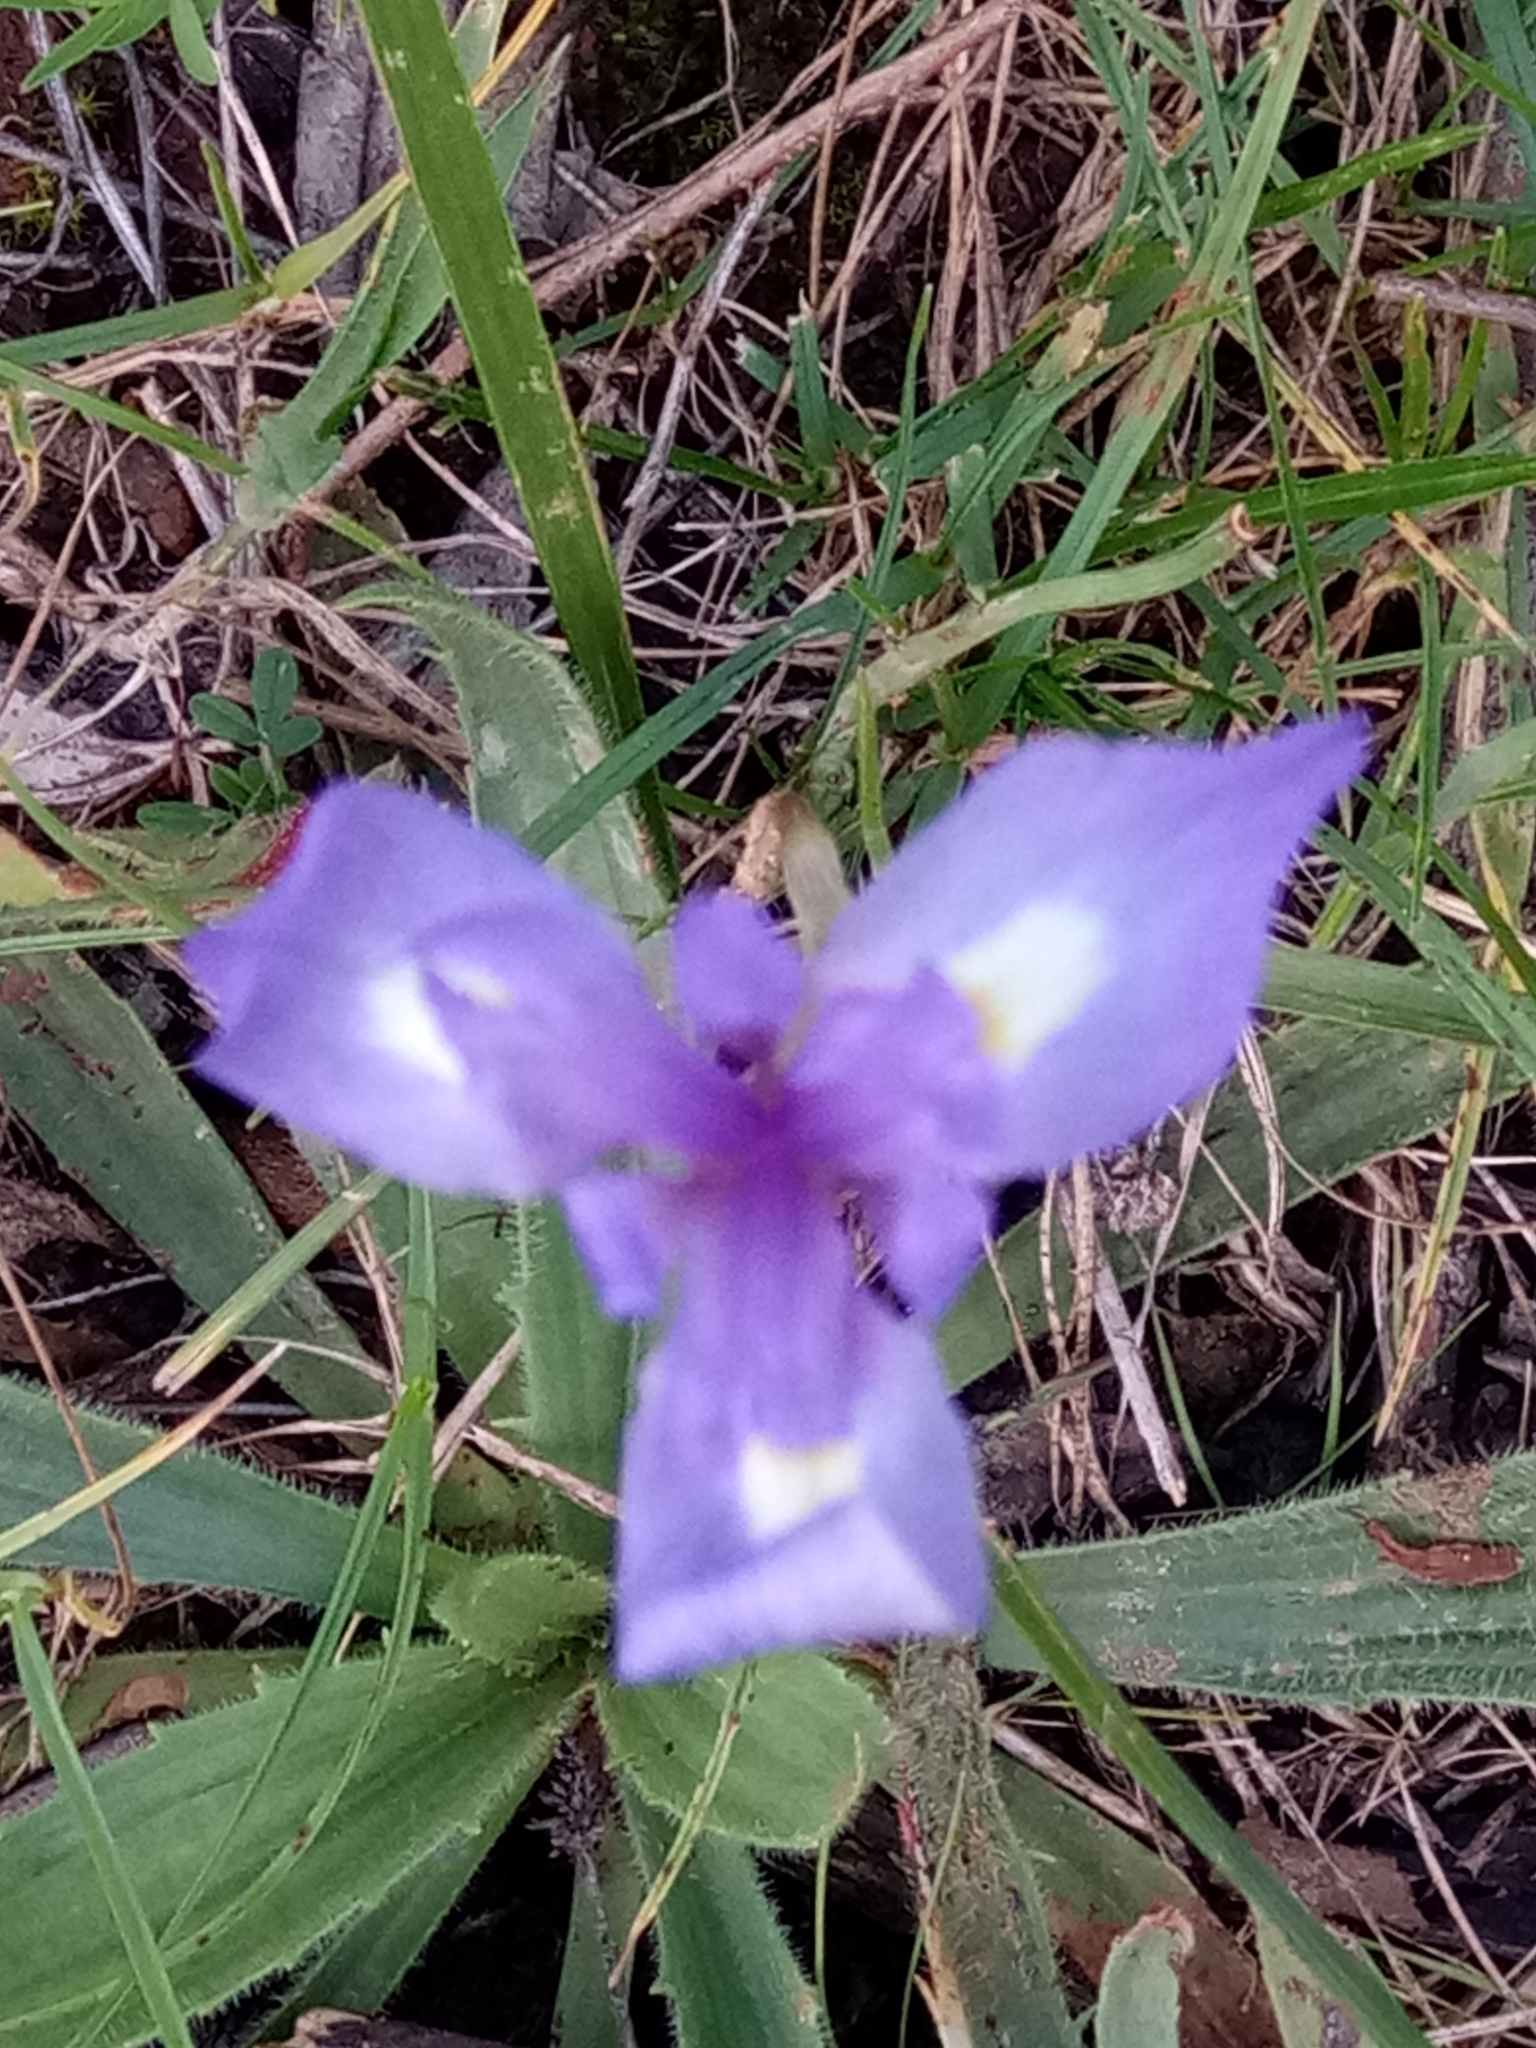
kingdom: Plantae
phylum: Tracheophyta
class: Liliopsida
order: Asparagales
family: Iridaceae
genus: Moraea
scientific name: Moraea sisyrinchium
